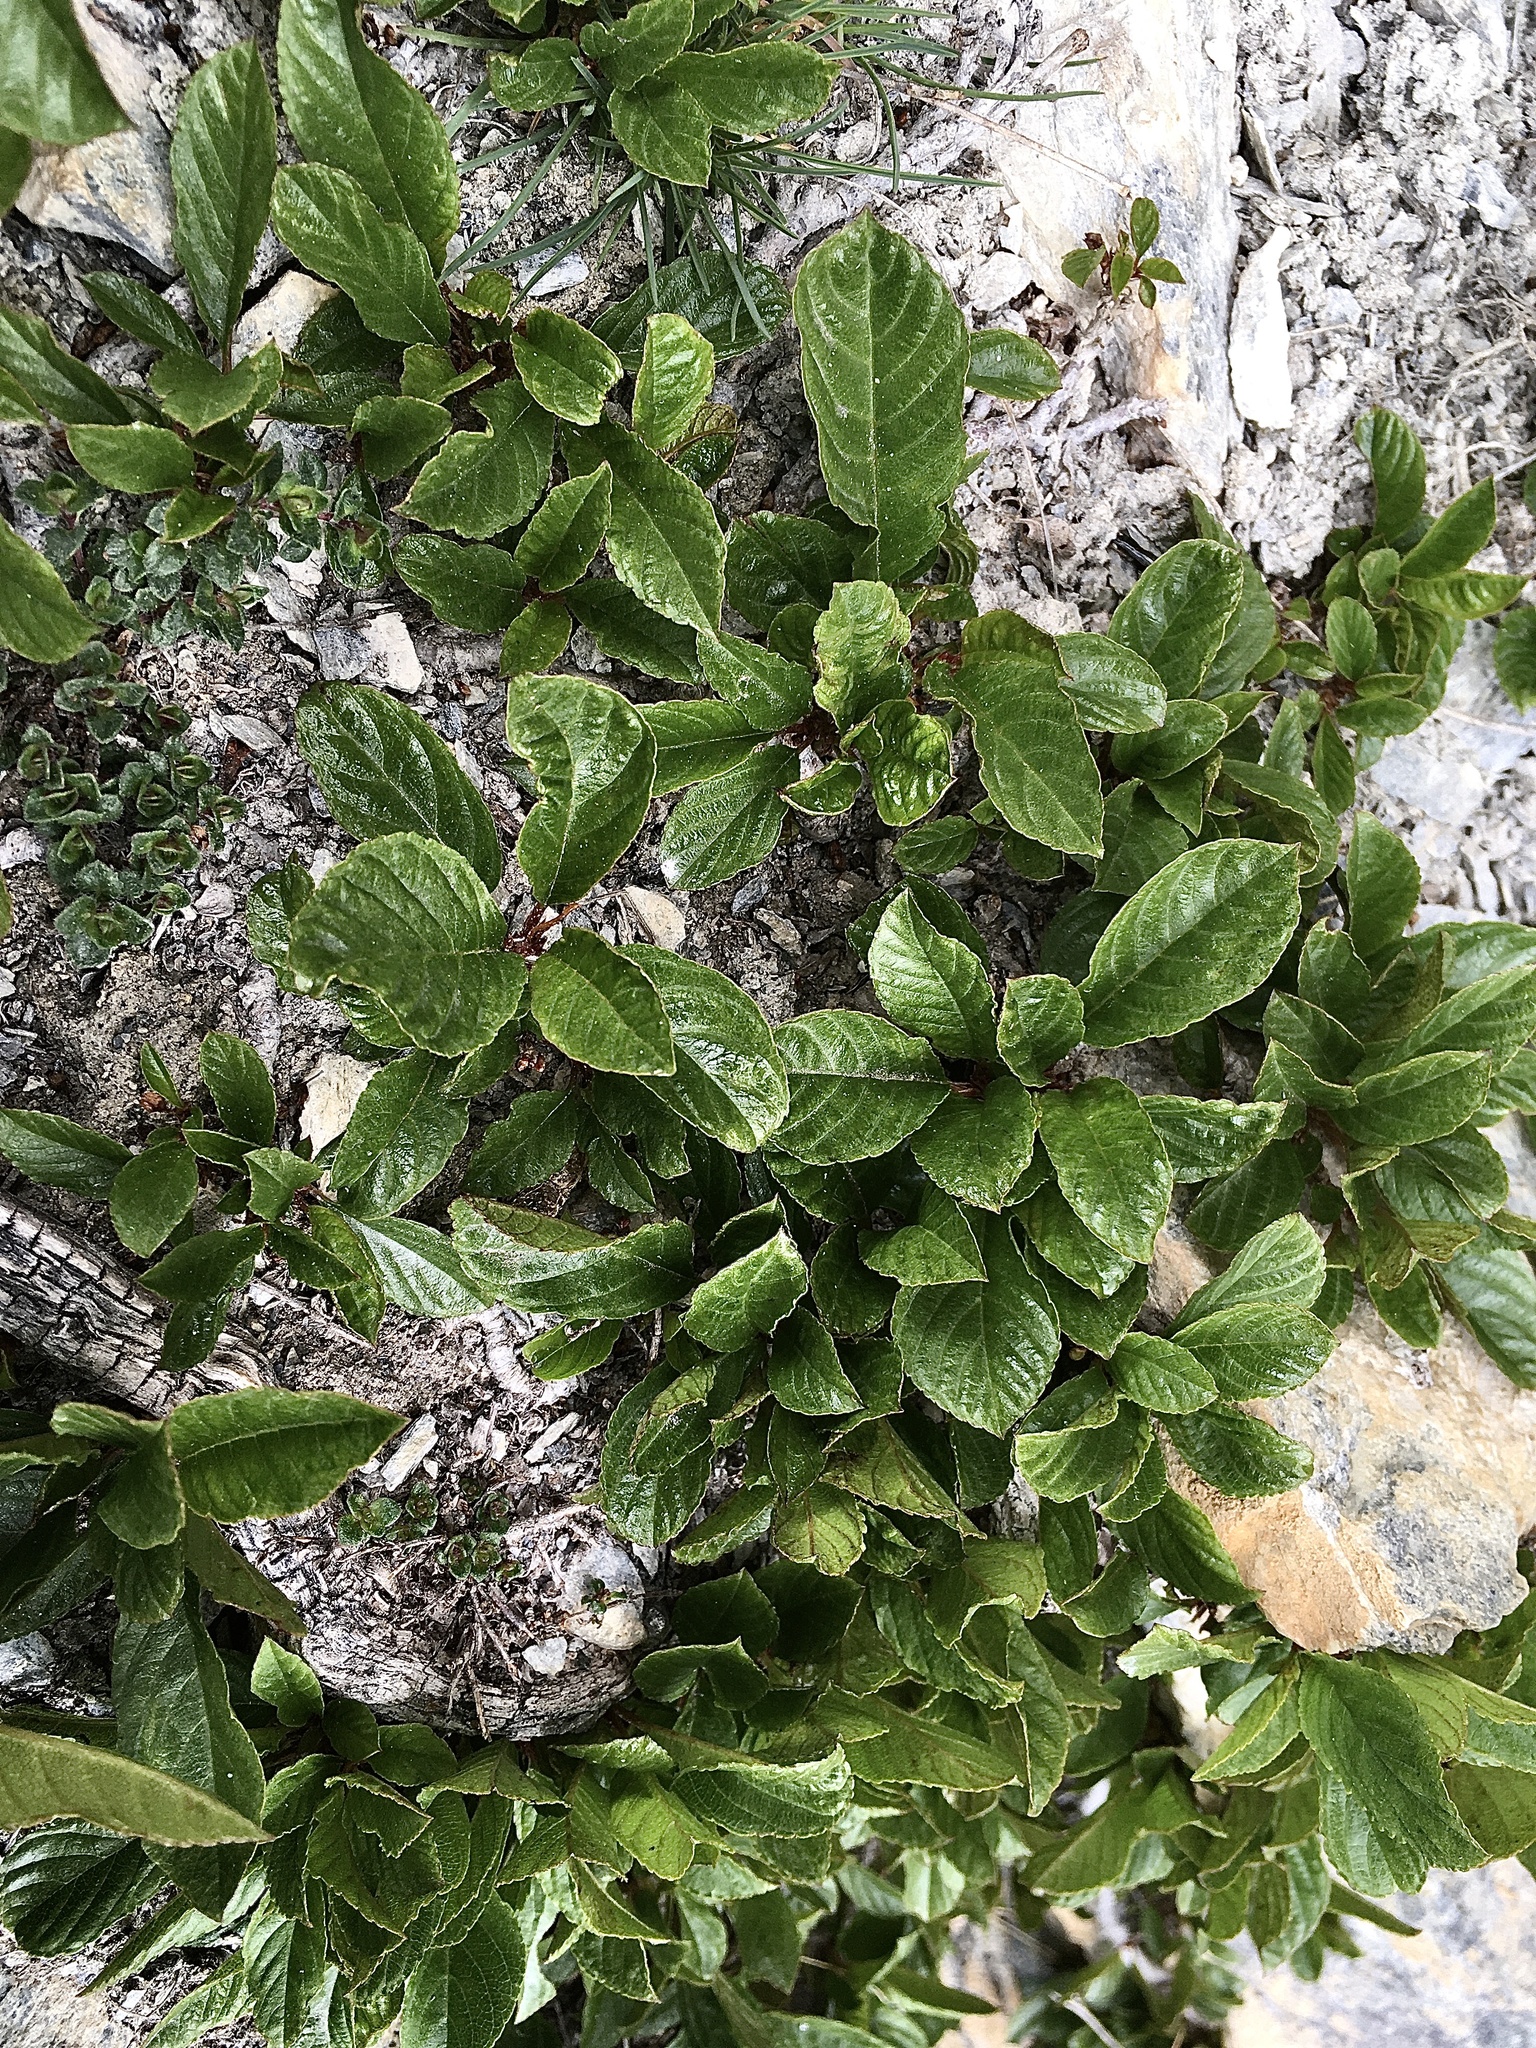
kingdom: Plantae
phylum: Tracheophyta
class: Magnoliopsida
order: Rosales
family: Rhamnaceae
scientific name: Rhamnaceae
